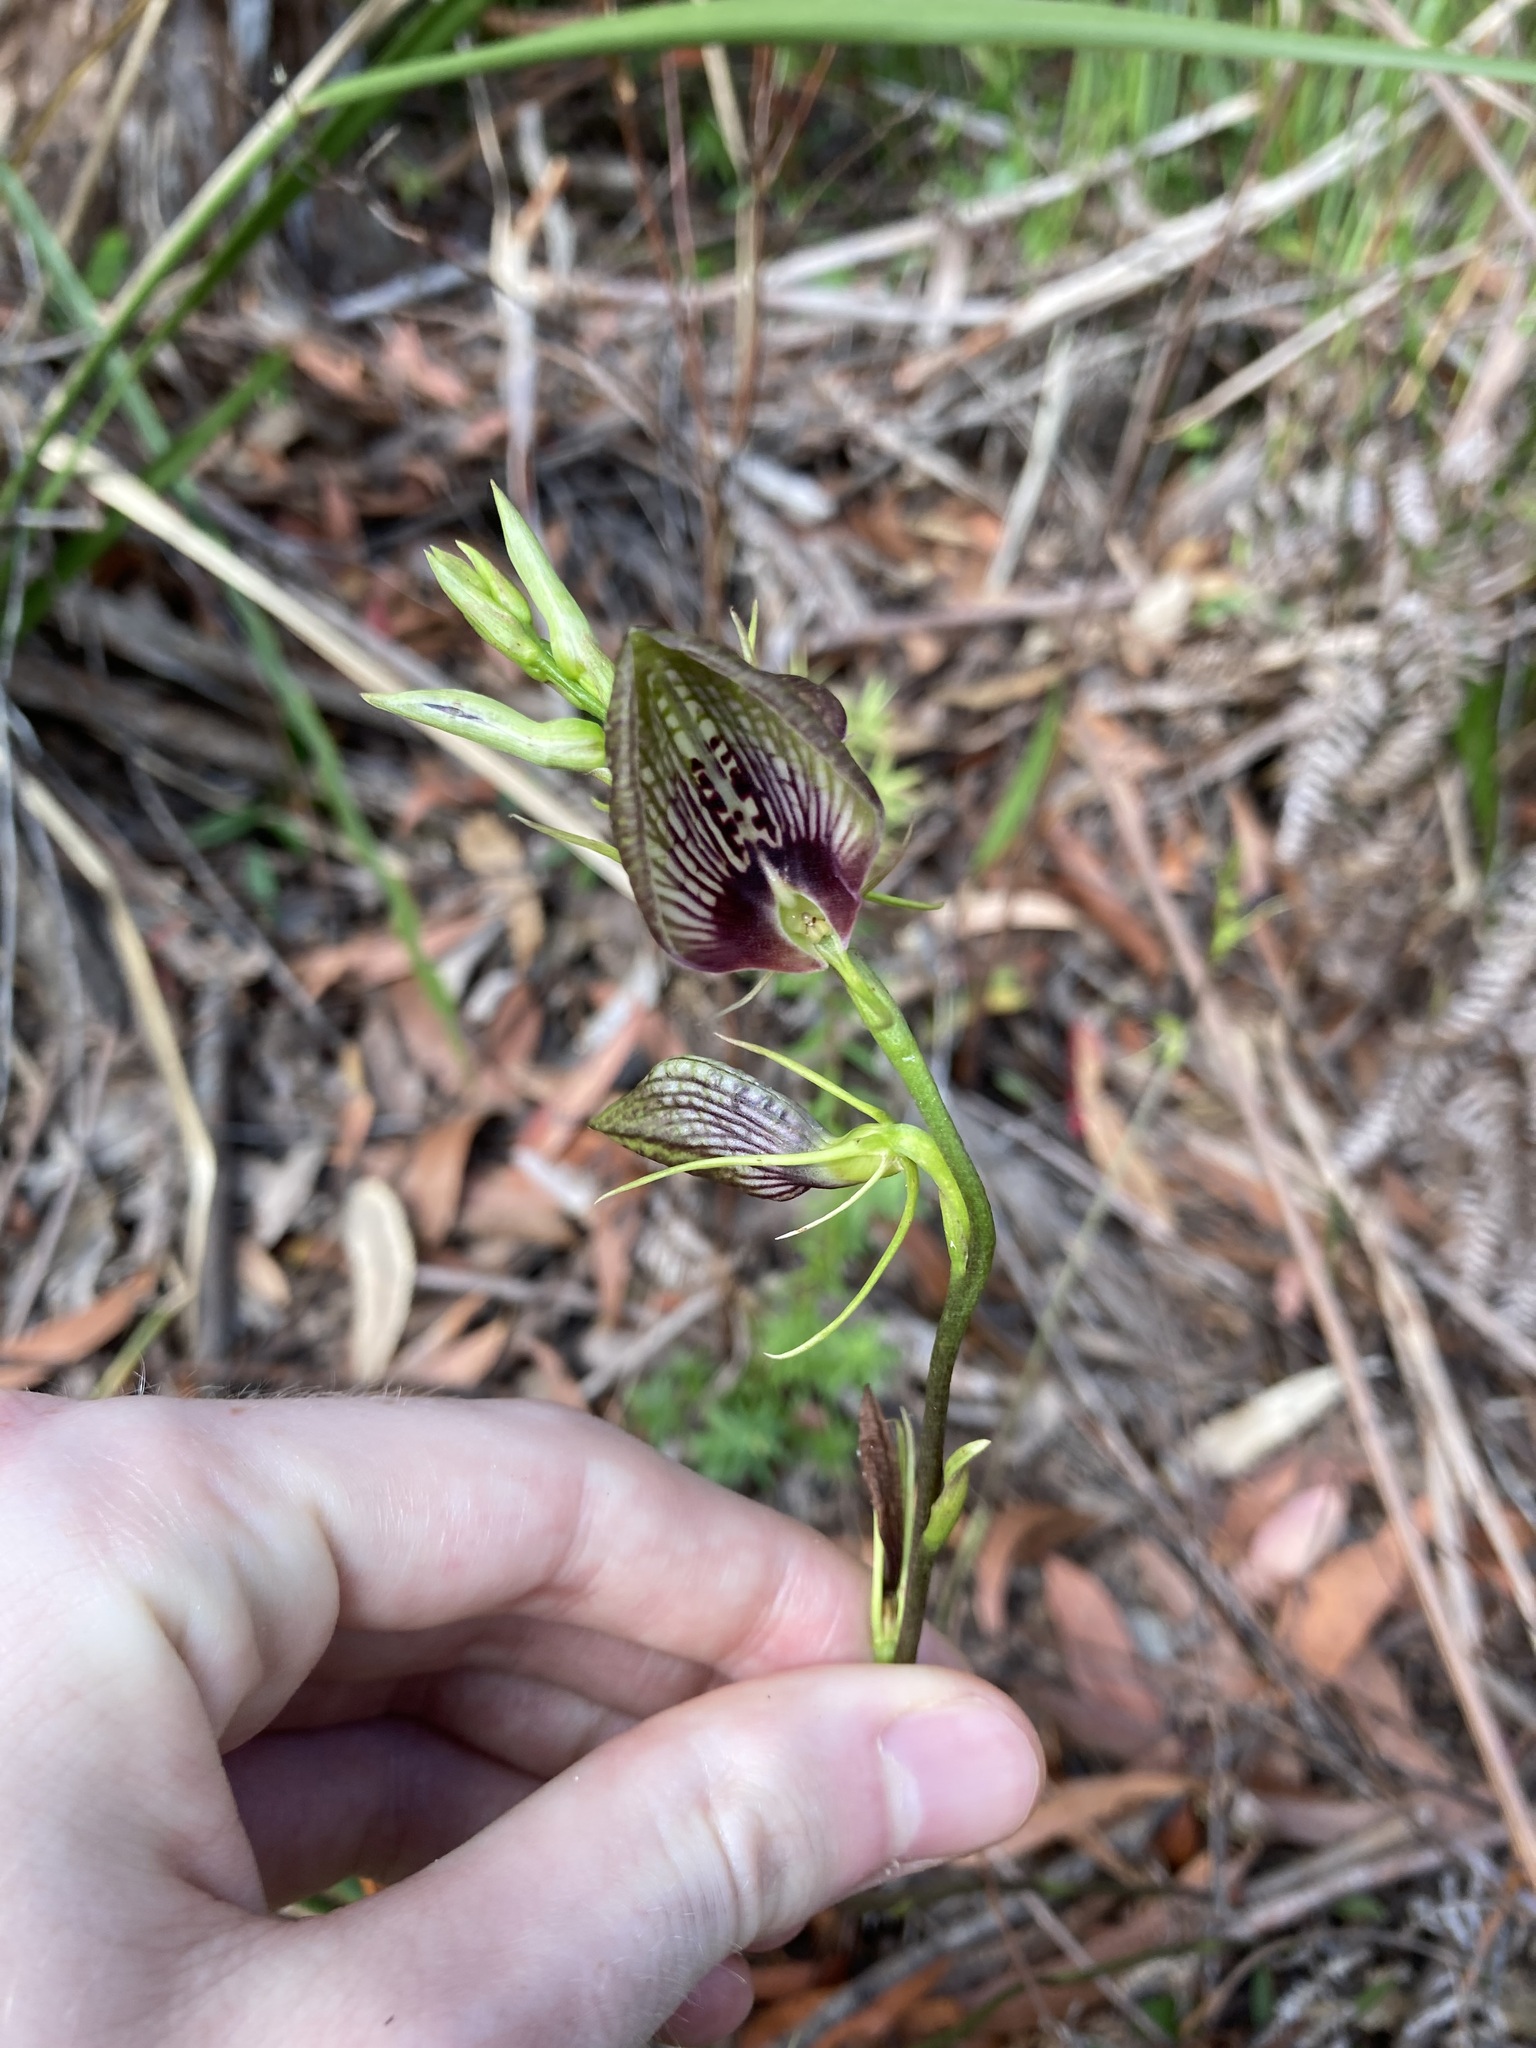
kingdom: Plantae
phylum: Tracheophyta
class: Liliopsida
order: Asparagales
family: Orchidaceae
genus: Cryptostylis
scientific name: Cryptostylis erecta
